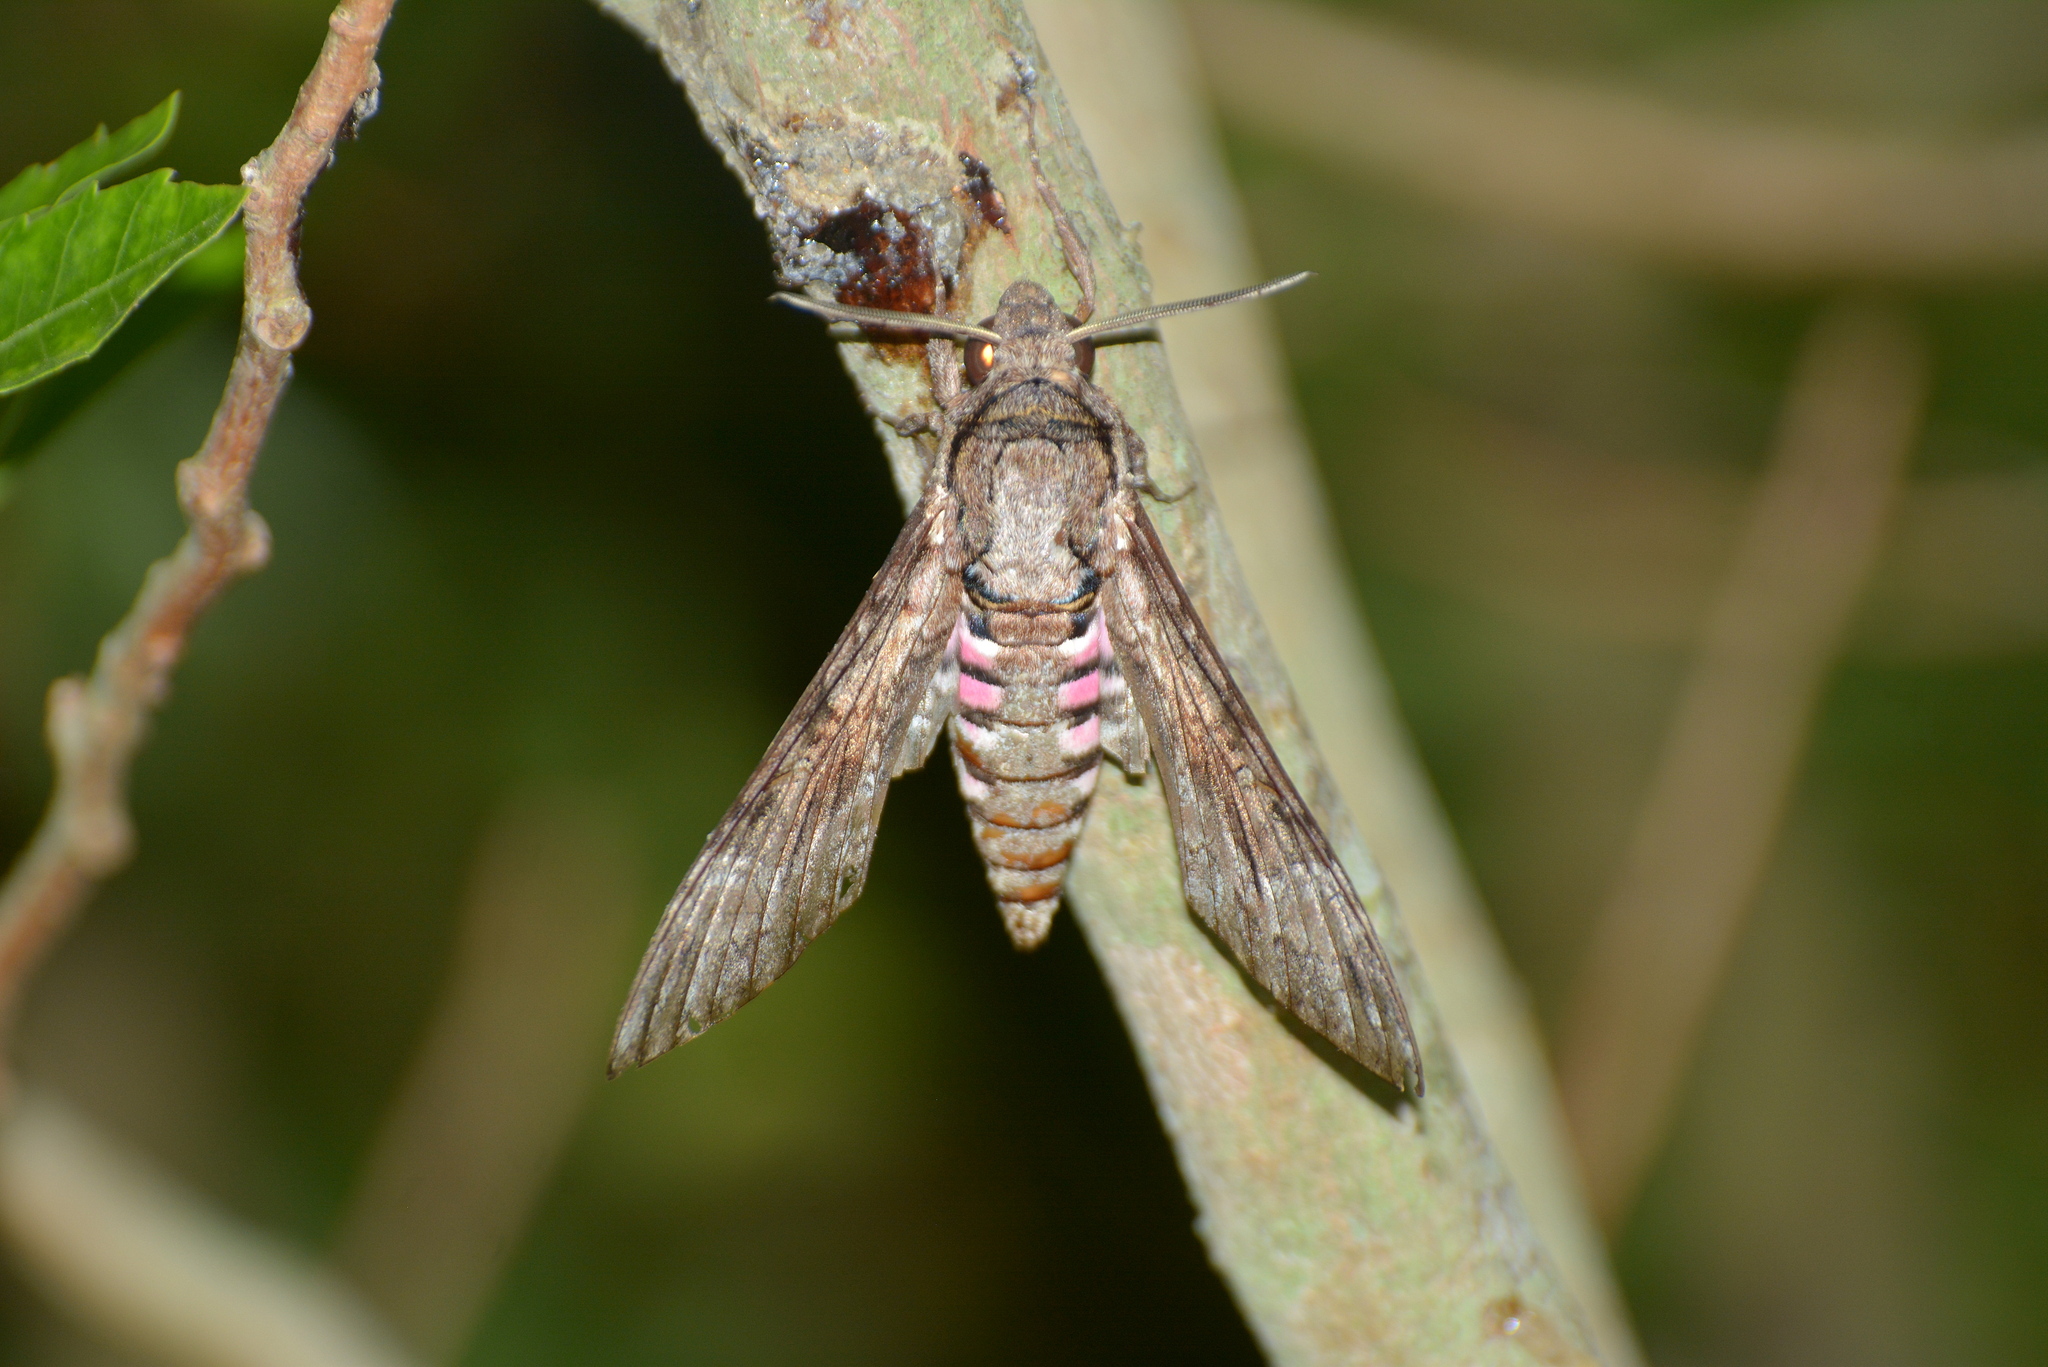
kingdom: Animalia
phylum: Arthropoda
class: Insecta
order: Lepidoptera
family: Sphingidae
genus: Agrius
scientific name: Agrius cingulata
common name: Pink-spotted hawkmoth
